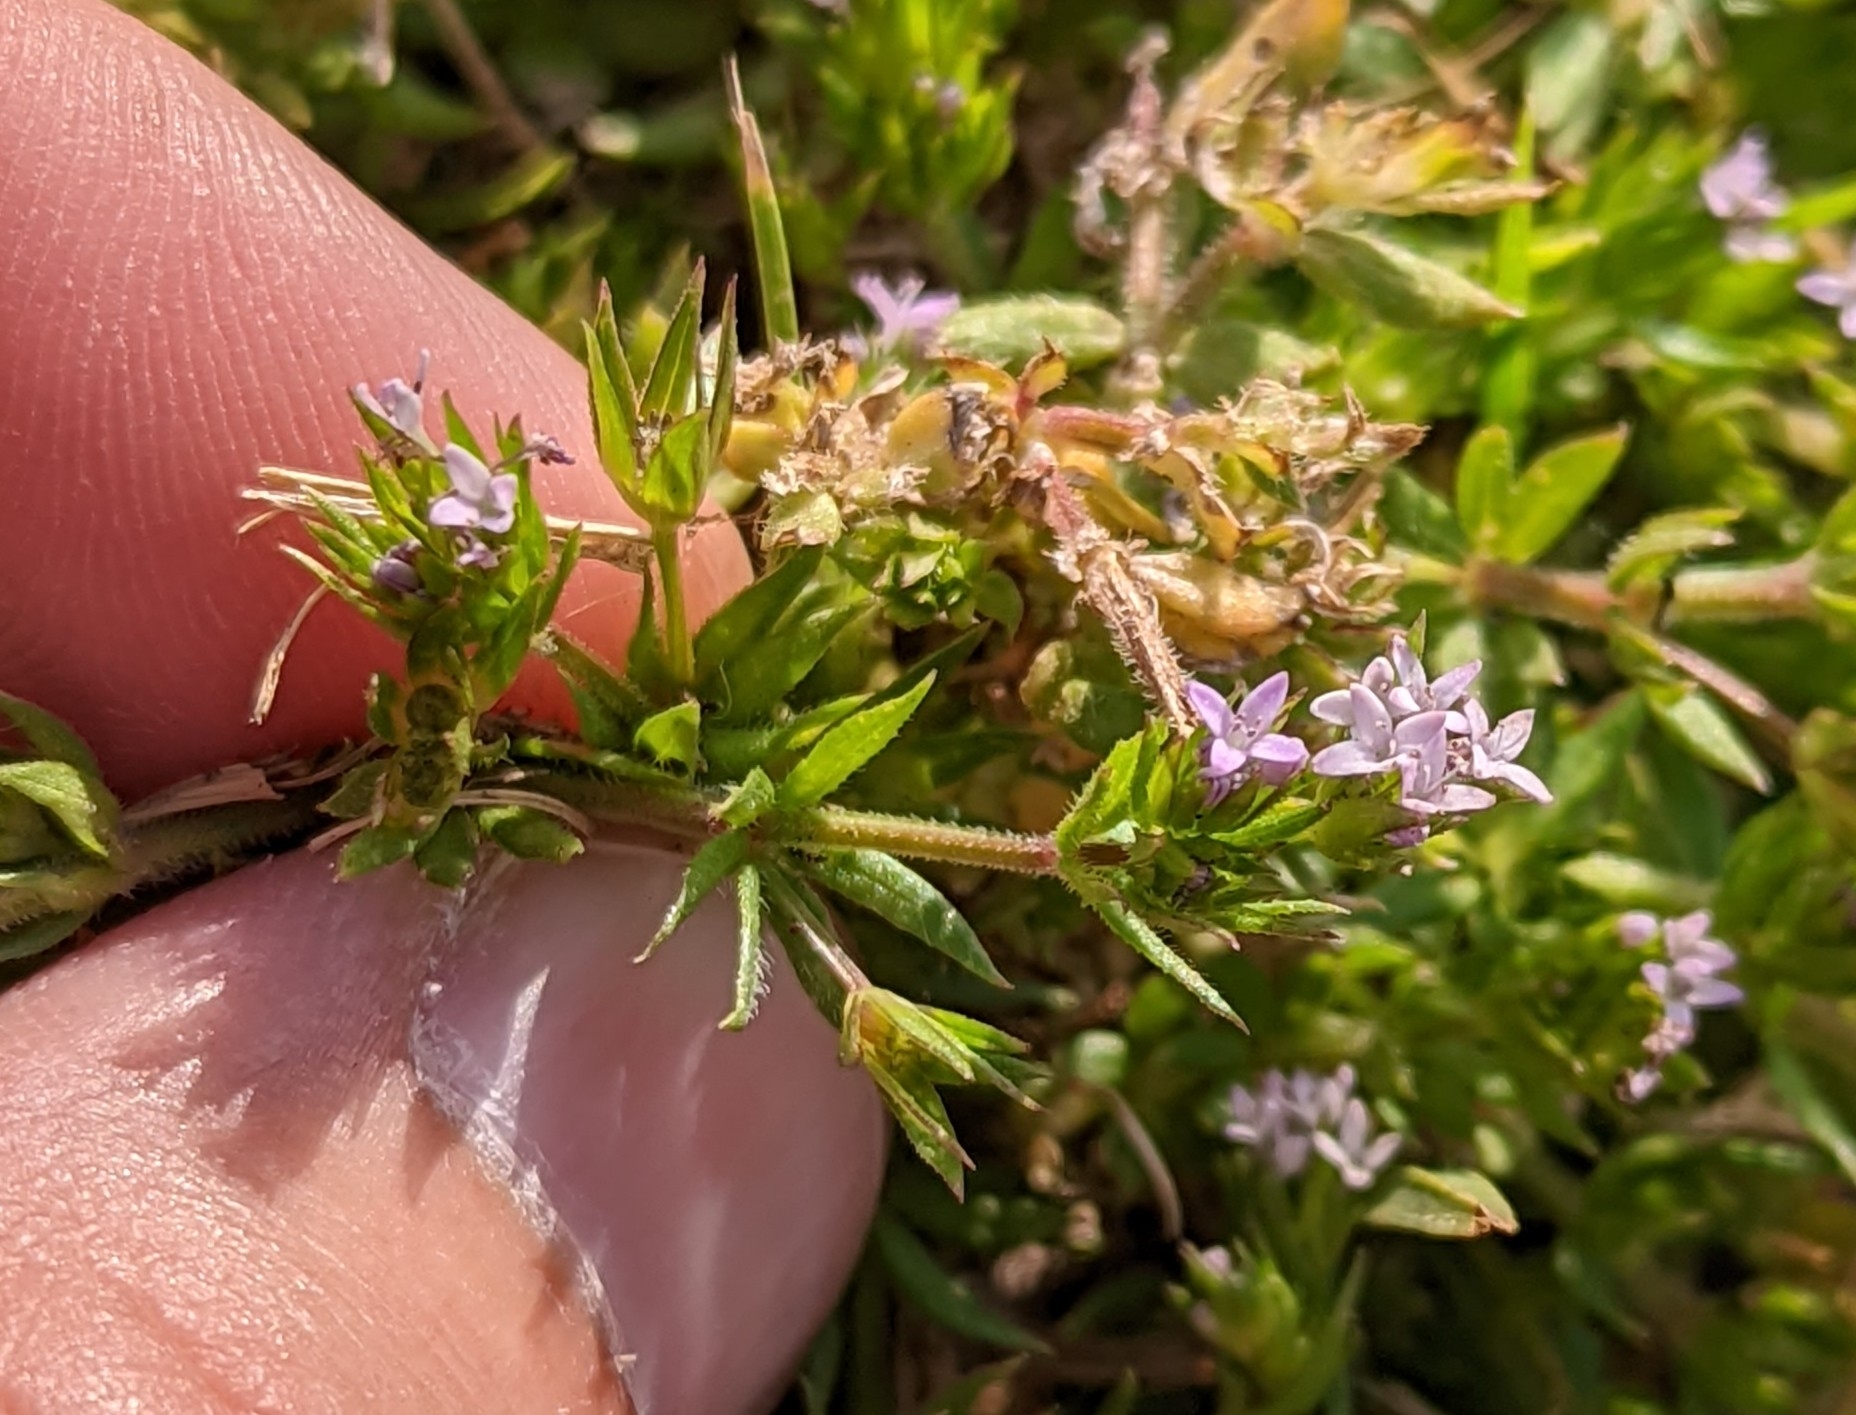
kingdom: Plantae
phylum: Tracheophyta
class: Magnoliopsida
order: Gentianales
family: Rubiaceae
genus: Sherardia
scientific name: Sherardia arvensis
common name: Field madder
